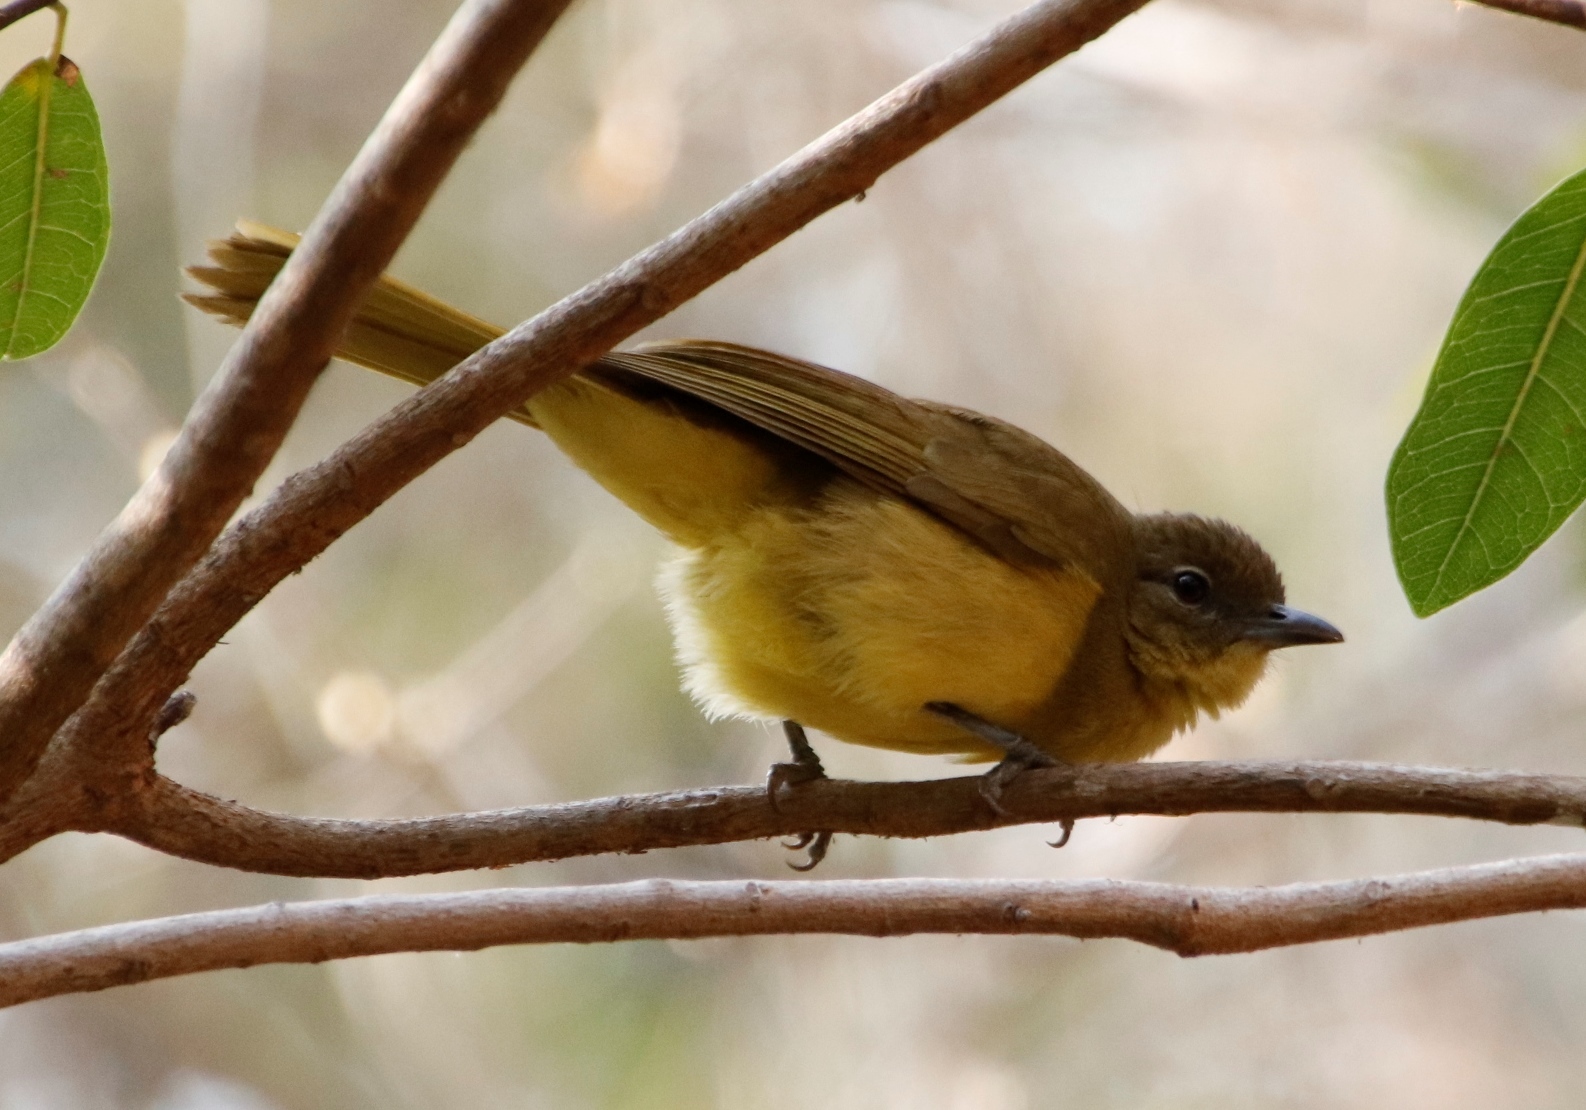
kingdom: Animalia
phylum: Chordata
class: Aves
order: Passeriformes
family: Pycnonotidae
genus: Chlorocichla
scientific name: Chlorocichla flaviventris
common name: Yellow-bellied greenbul
